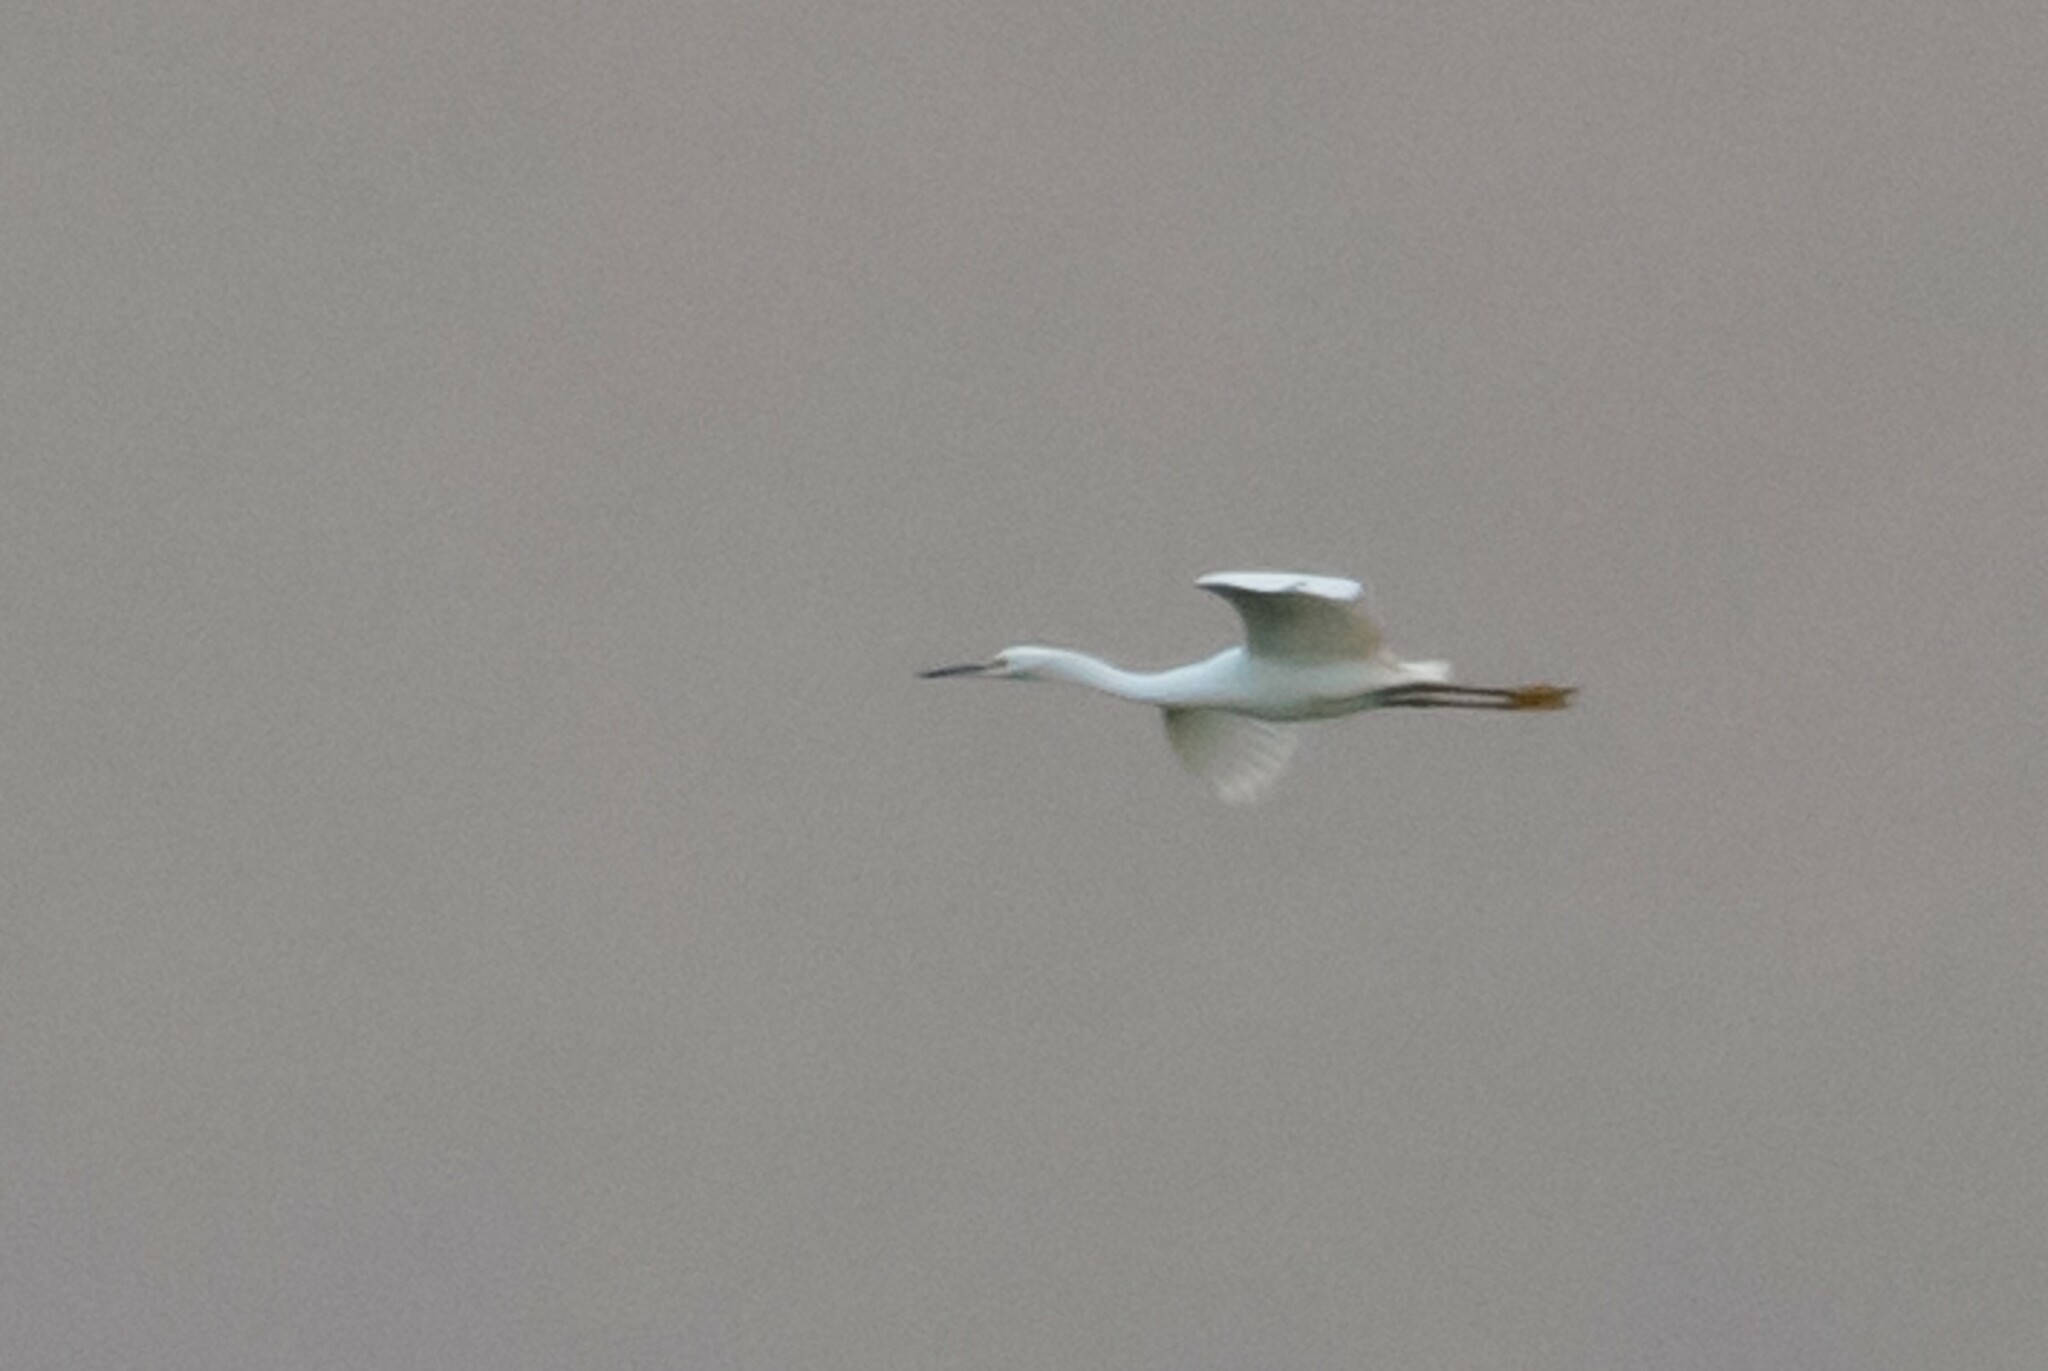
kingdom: Animalia
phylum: Chordata
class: Aves
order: Pelecaniformes
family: Ardeidae
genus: Egretta
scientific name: Egretta thula
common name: Snowy egret
